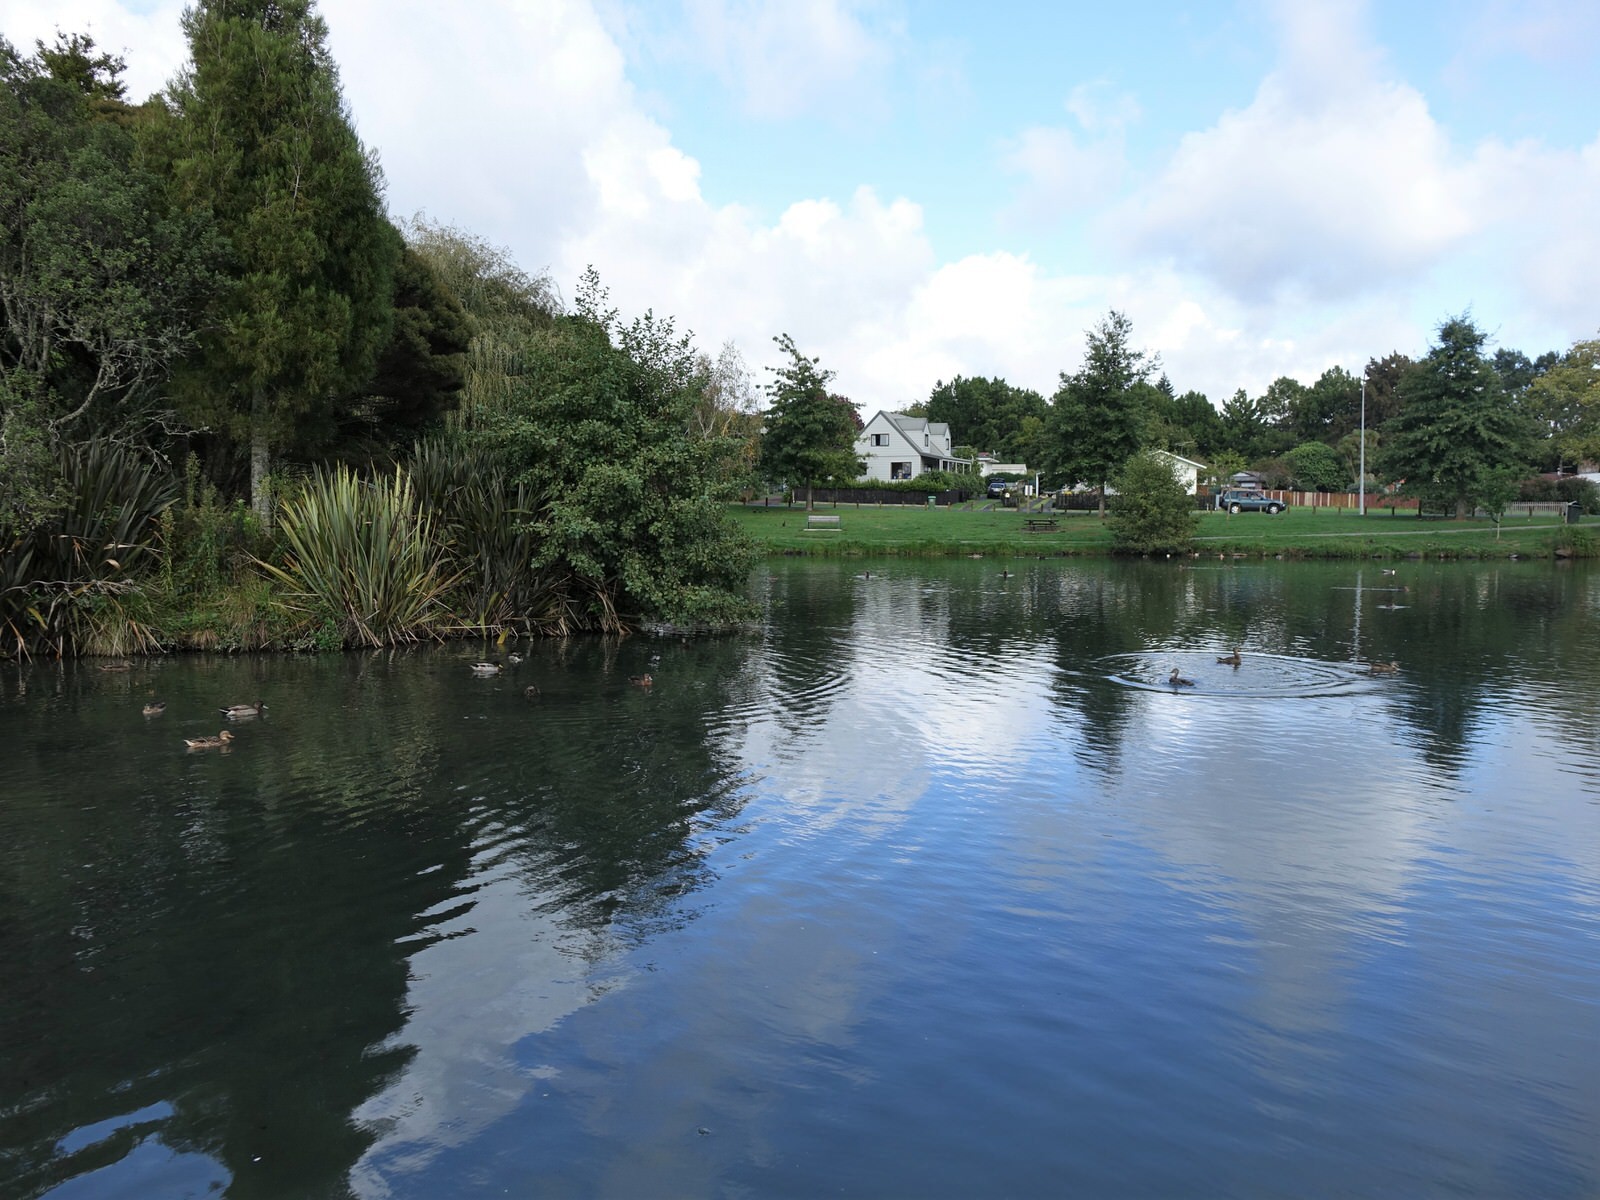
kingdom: Animalia
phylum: Chordata
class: Aves
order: Anseriformes
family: Anatidae
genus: Anas
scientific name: Anas platyrhynchos
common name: Mallard
